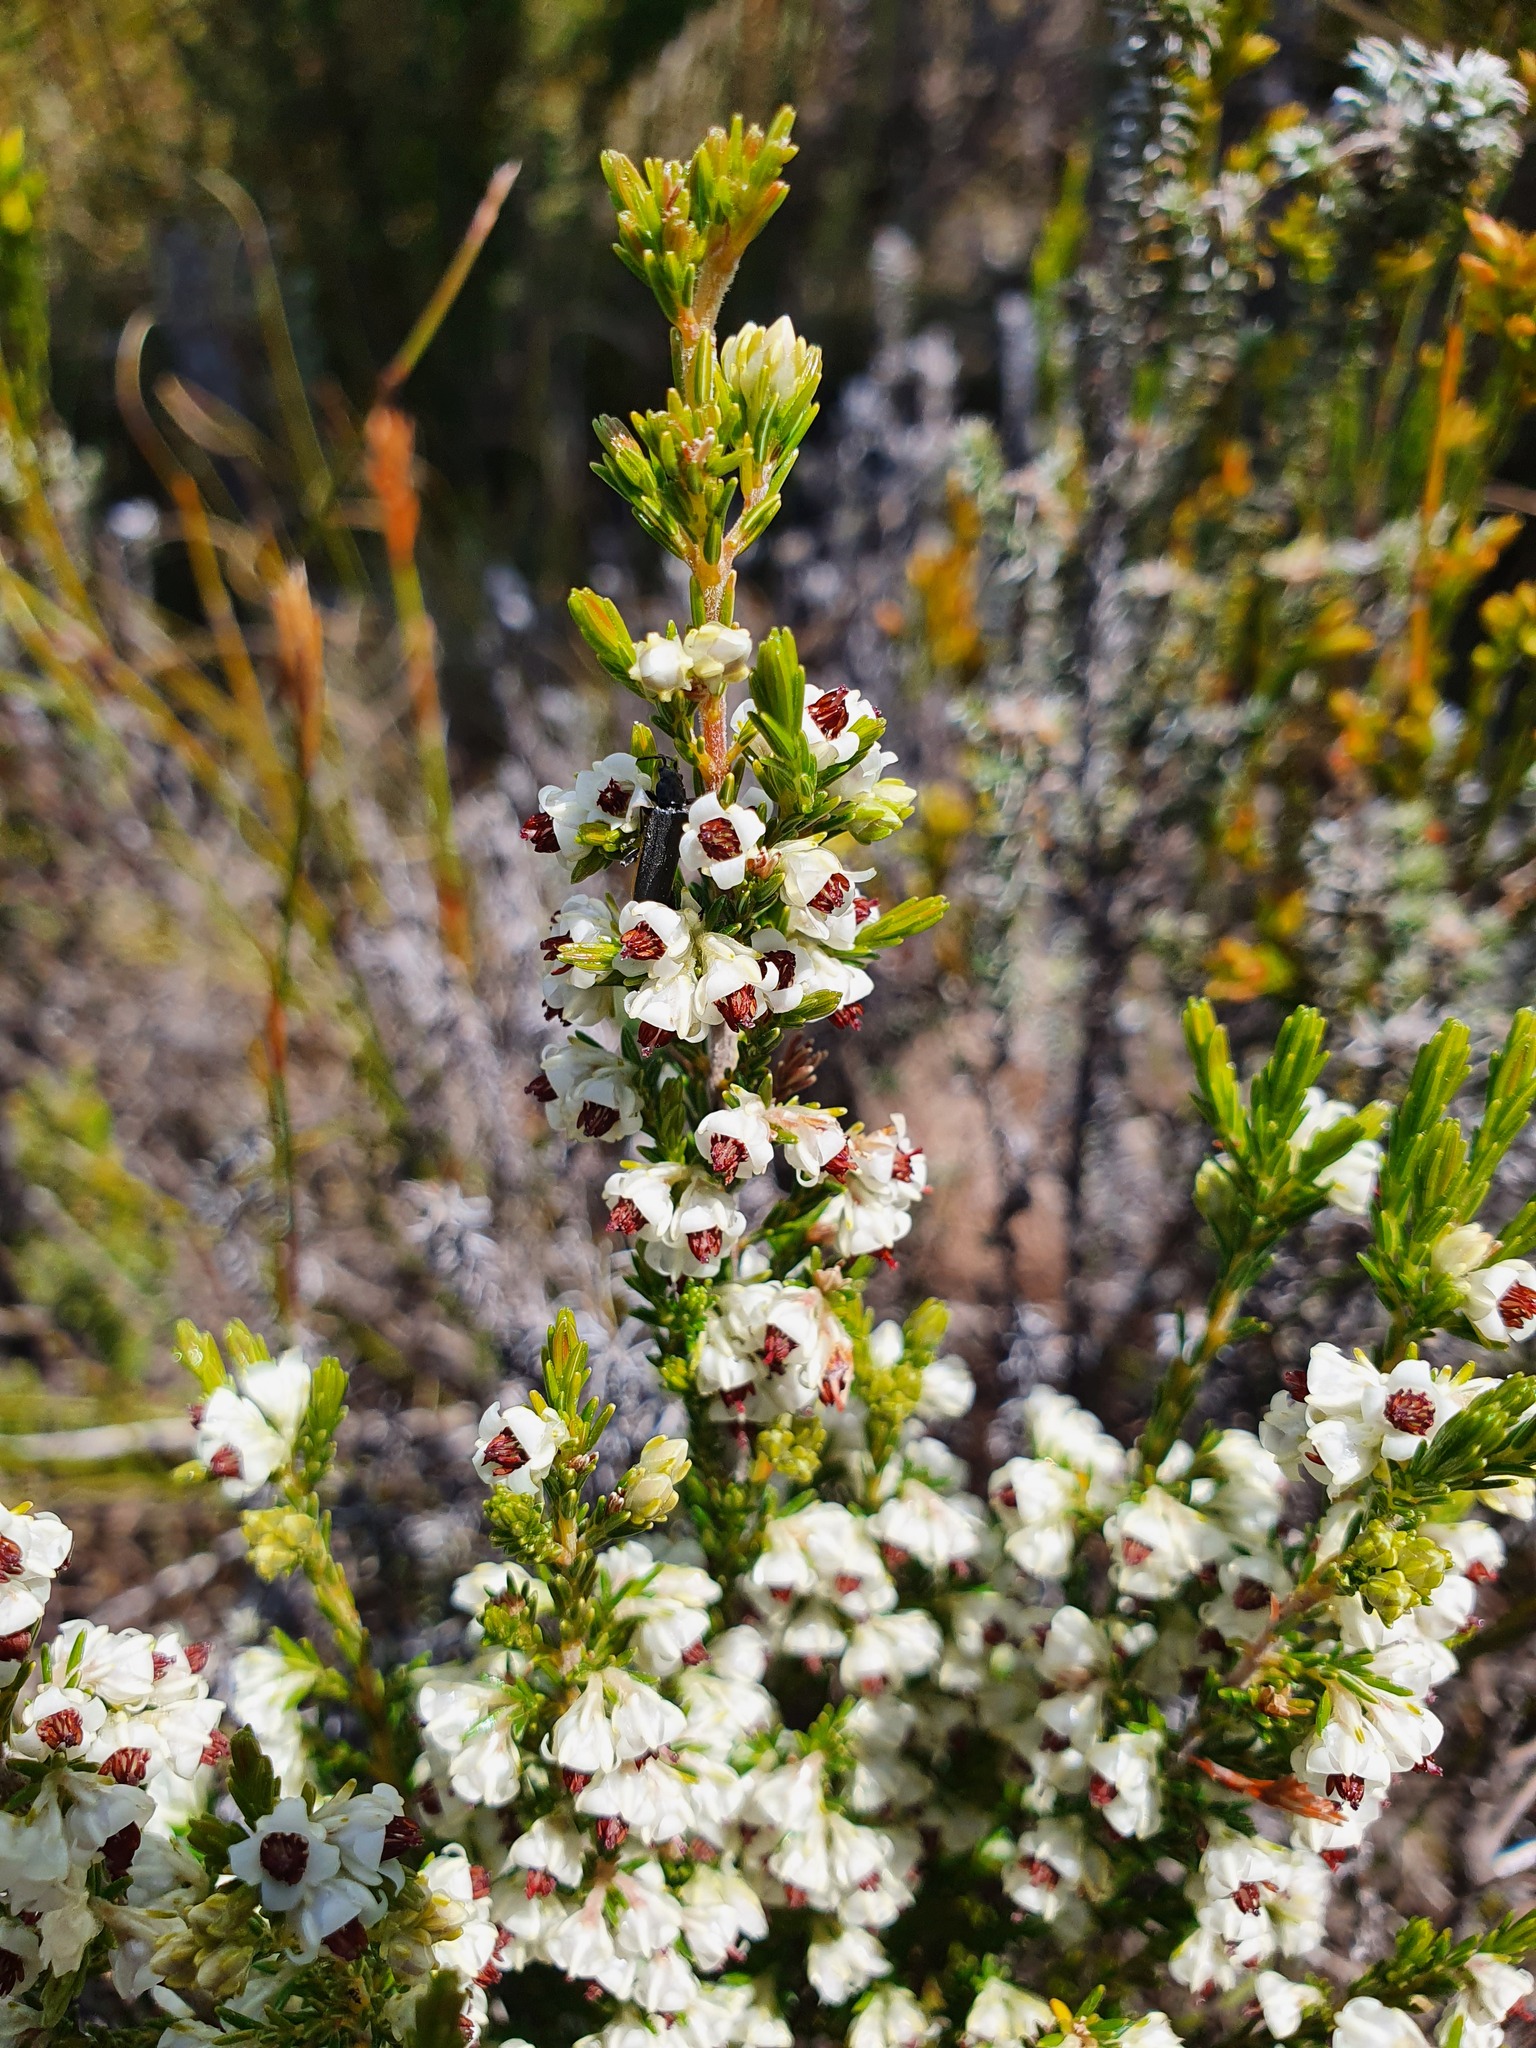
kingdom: Plantae
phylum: Tracheophyta
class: Magnoliopsida
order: Ericales
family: Ericaceae
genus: Erica
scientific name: Erica calycina
